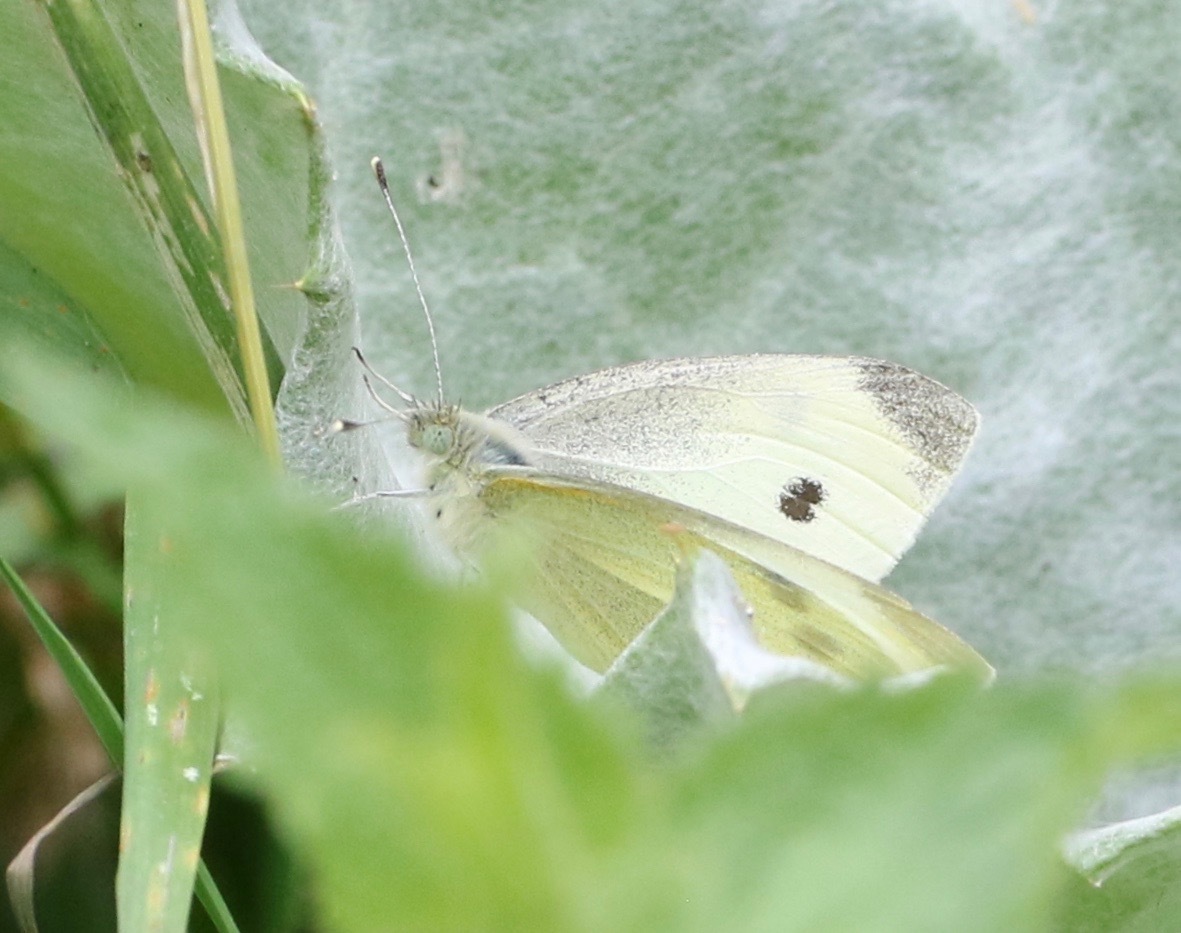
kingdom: Animalia
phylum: Arthropoda
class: Insecta
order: Lepidoptera
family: Pieridae
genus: Pieris
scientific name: Pieris rapae
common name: Small white
